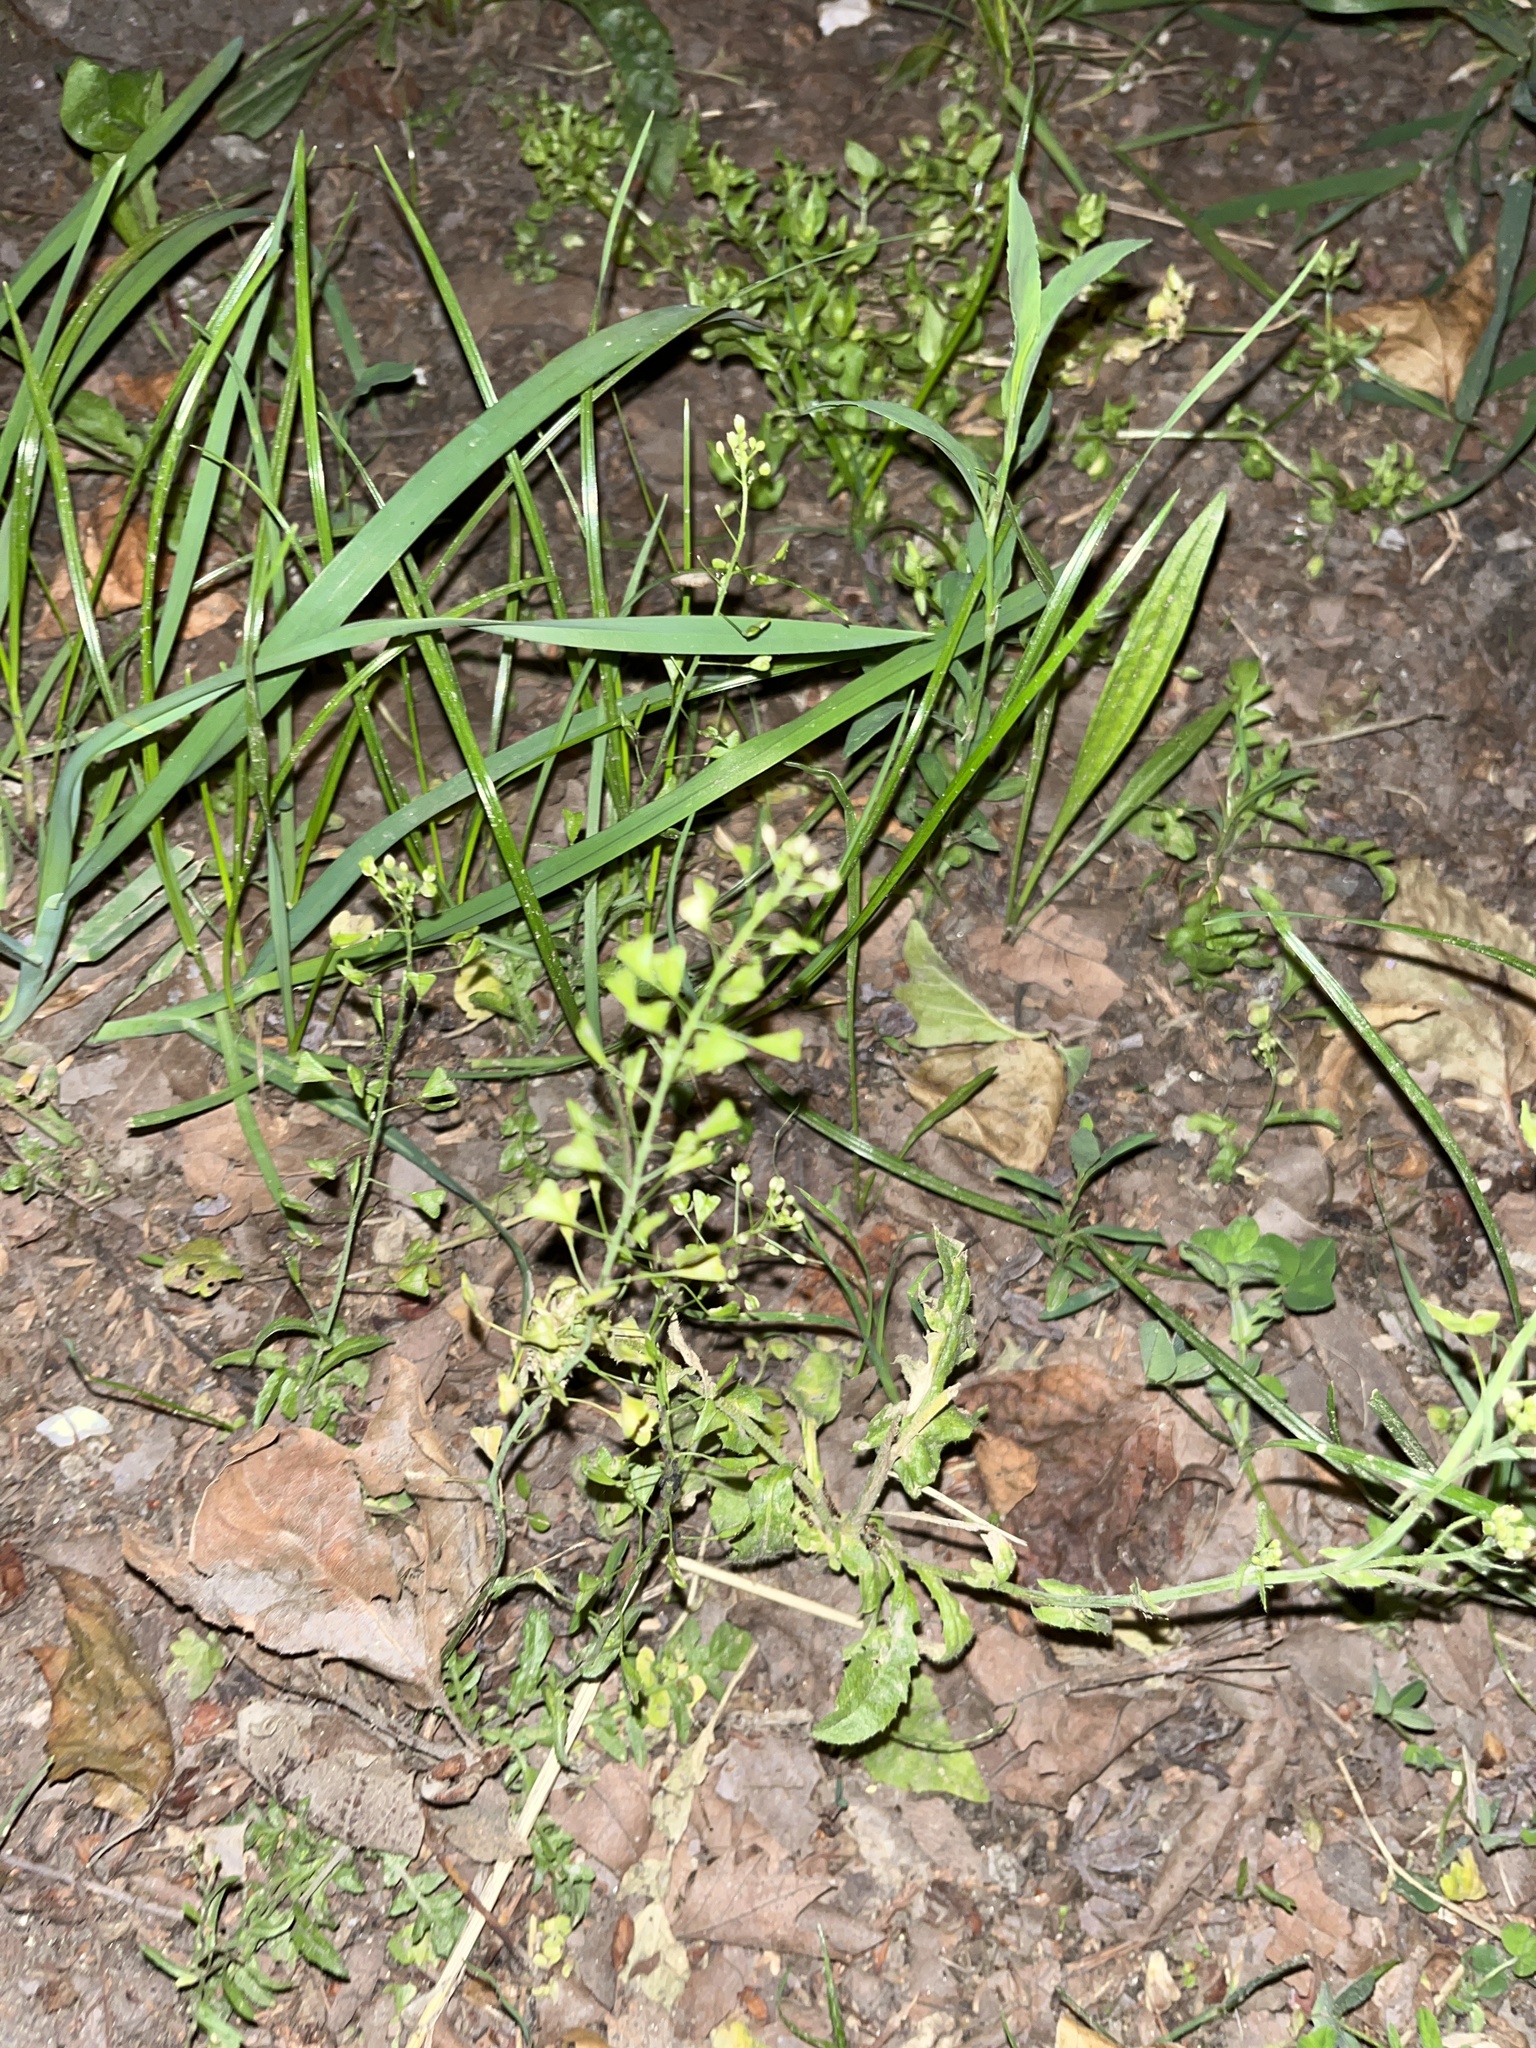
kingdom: Plantae
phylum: Tracheophyta
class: Magnoliopsida
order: Brassicales
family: Brassicaceae
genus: Capsella
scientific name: Capsella bursa-pastoris
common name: Shepherd's purse
